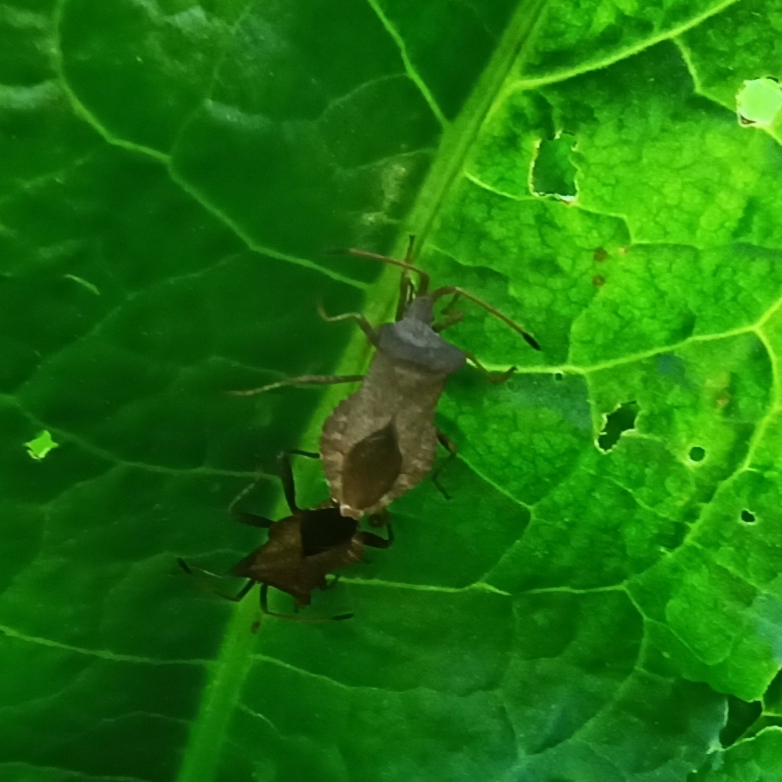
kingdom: Animalia
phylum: Arthropoda
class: Insecta
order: Hemiptera
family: Coreidae
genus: Coreus
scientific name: Coreus marginatus
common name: Dock bug
